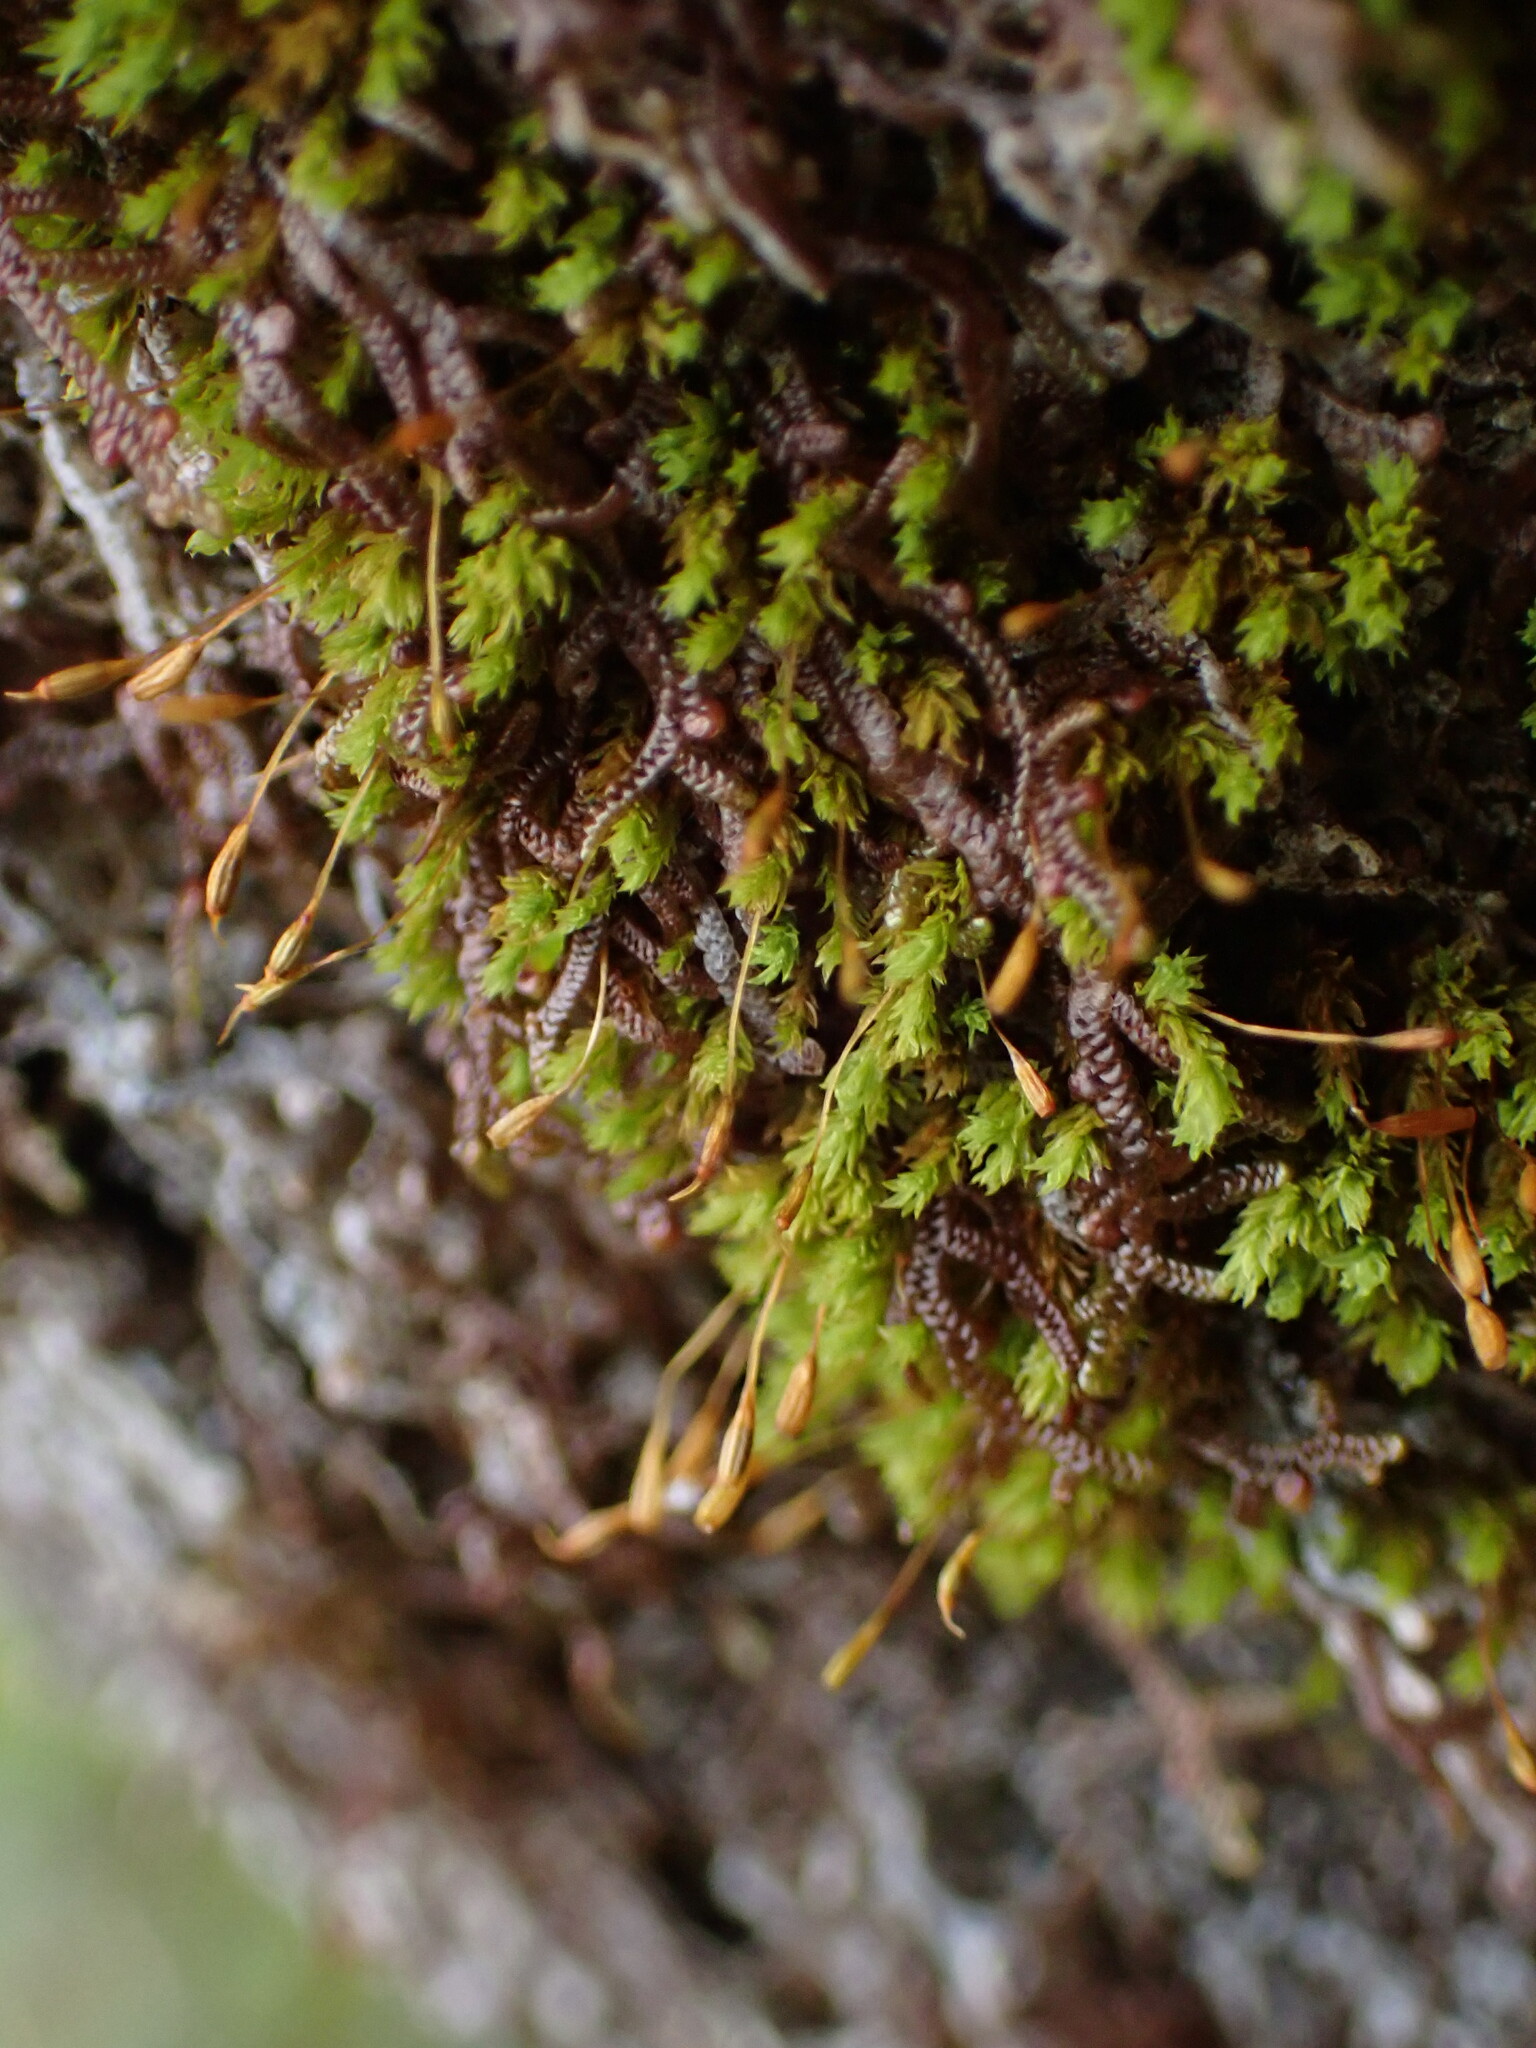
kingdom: Plantae
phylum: Bryophyta
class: Bryopsida
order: Orthotrichales
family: Orthotrichaceae
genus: Zygodon
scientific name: Zygodon reinwardtii
